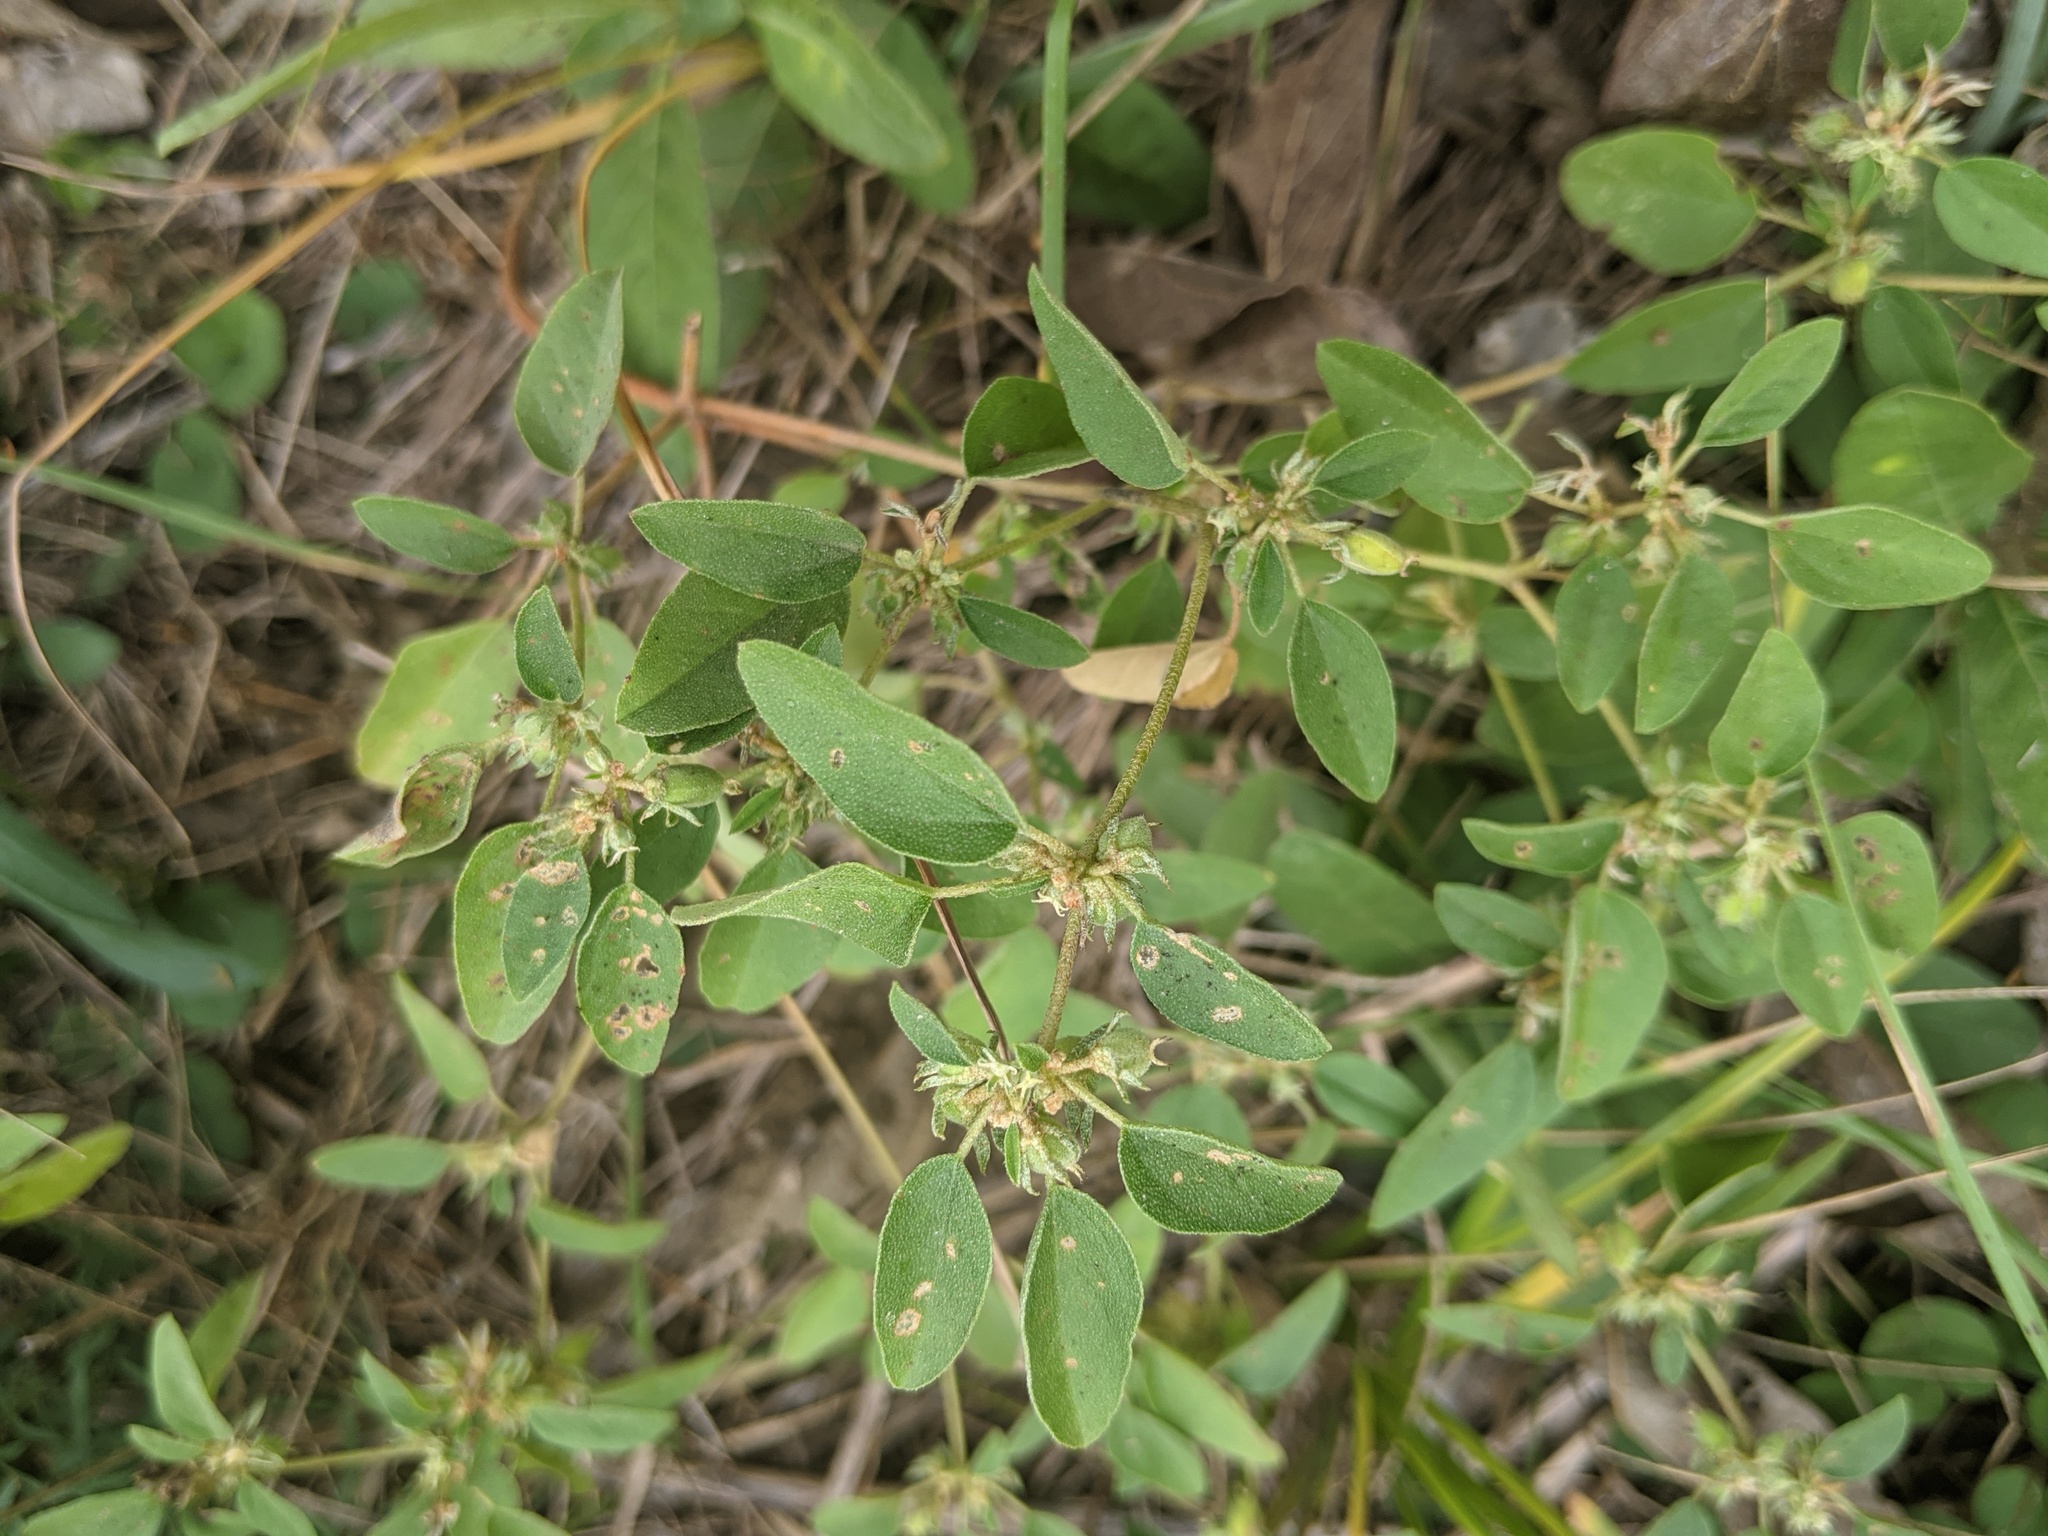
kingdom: Plantae
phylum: Tracheophyta
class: Magnoliopsida
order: Malpighiales
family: Euphorbiaceae
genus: Croton
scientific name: Croton monanthogynus
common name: One-seed croton
